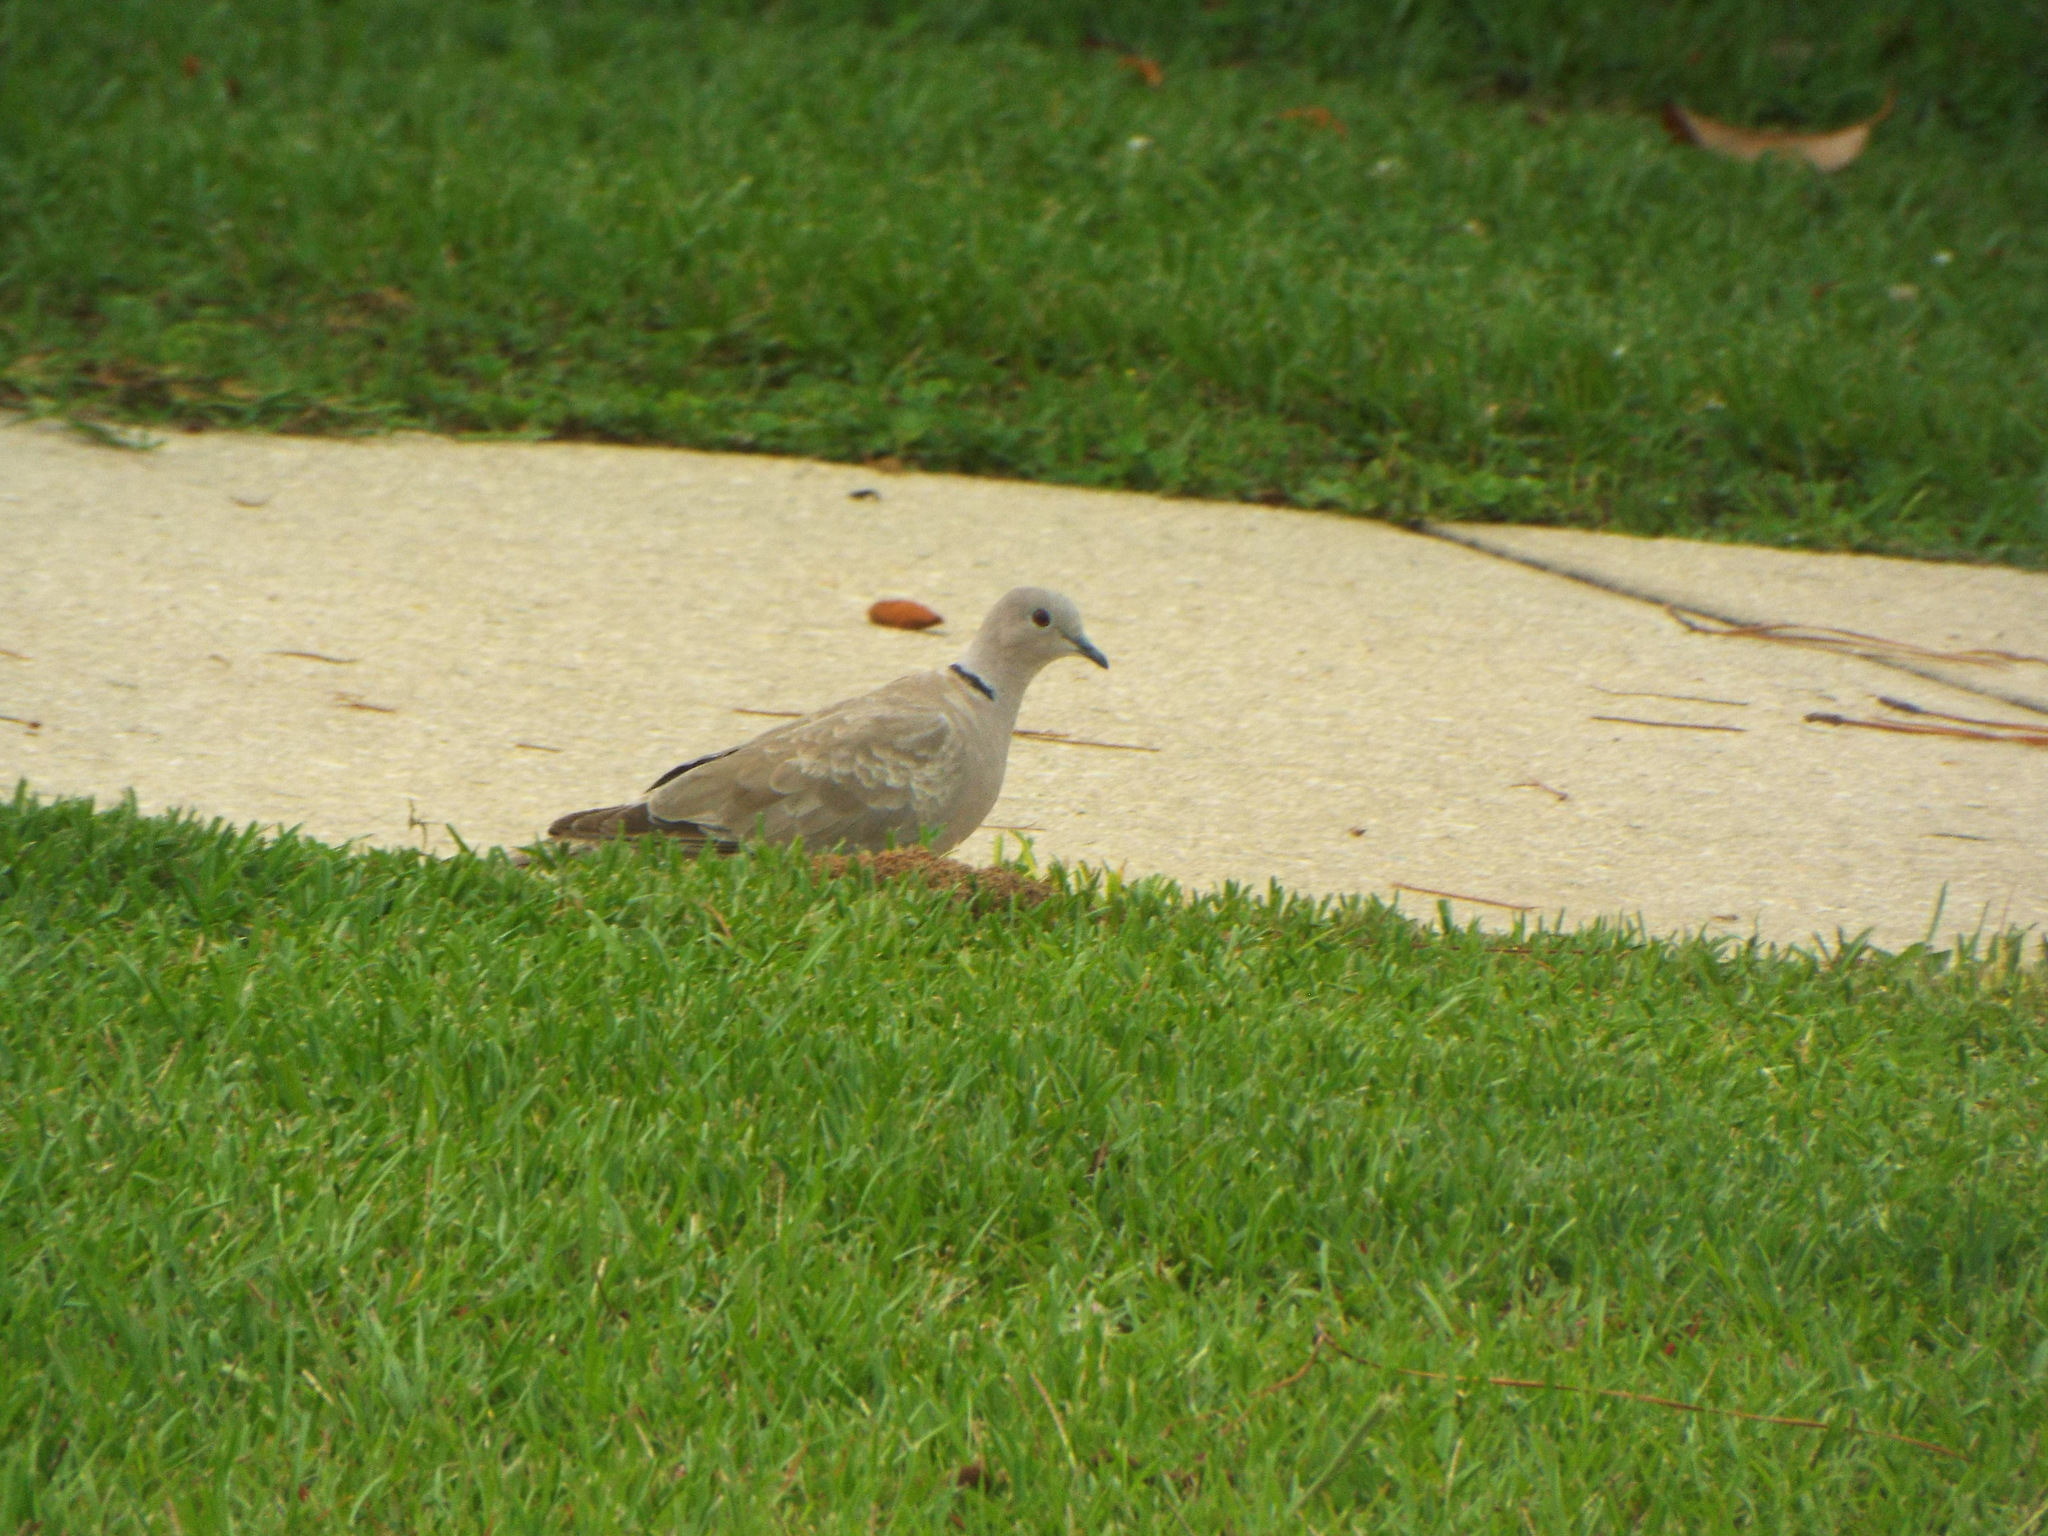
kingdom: Animalia
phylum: Chordata
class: Aves
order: Columbiformes
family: Columbidae
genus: Streptopelia
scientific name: Streptopelia decaocto
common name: Eurasian collared dove
